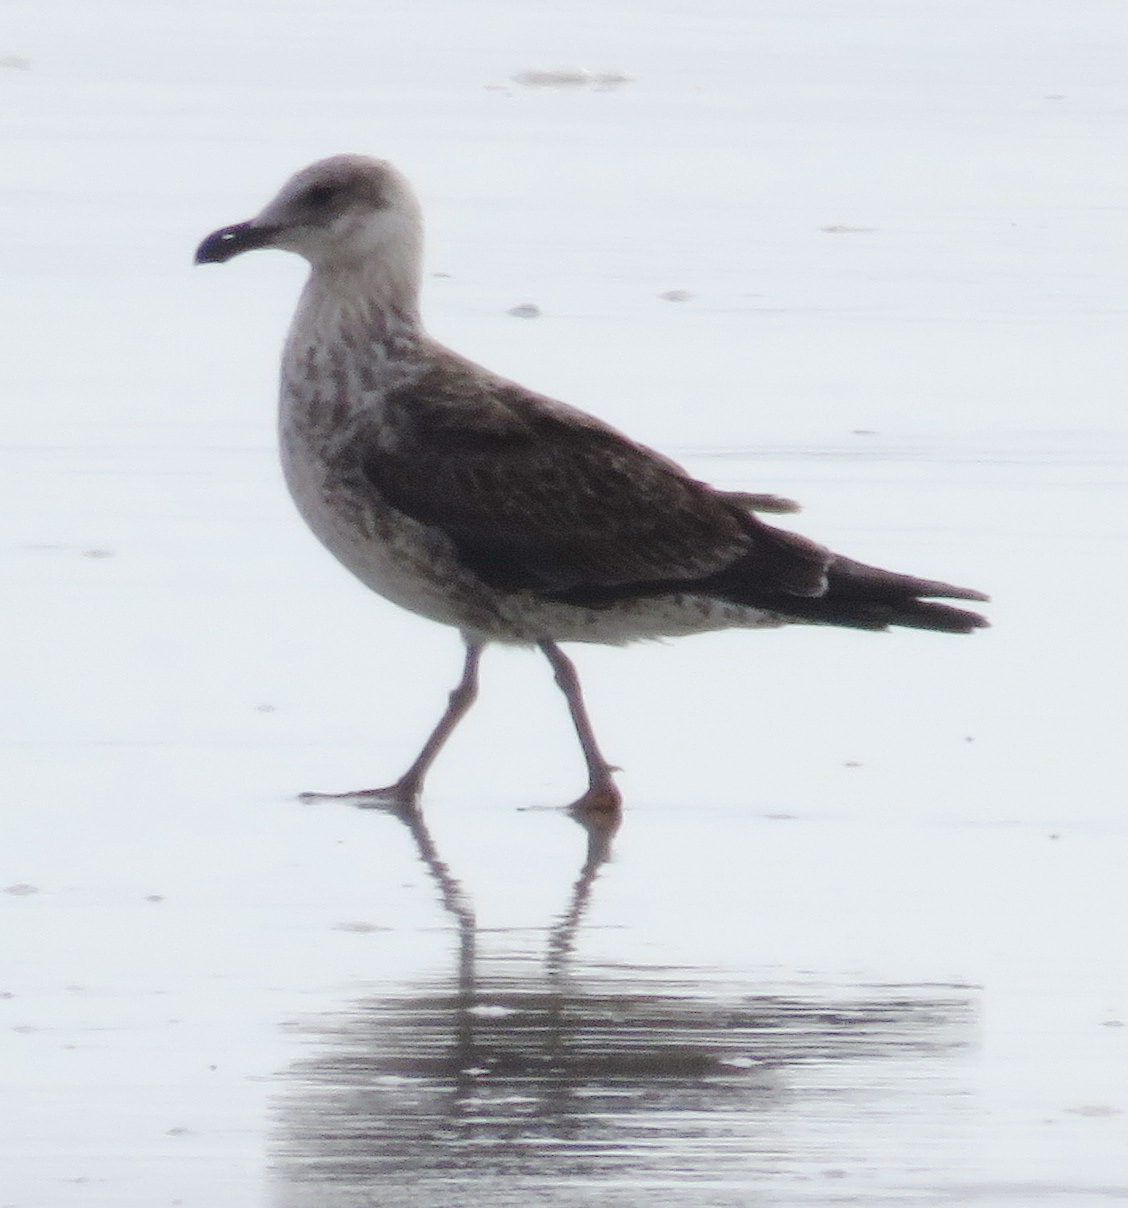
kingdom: Animalia
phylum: Chordata
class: Aves
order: Charadriiformes
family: Laridae
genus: Larus
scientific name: Larus dominicanus
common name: Kelp gull
